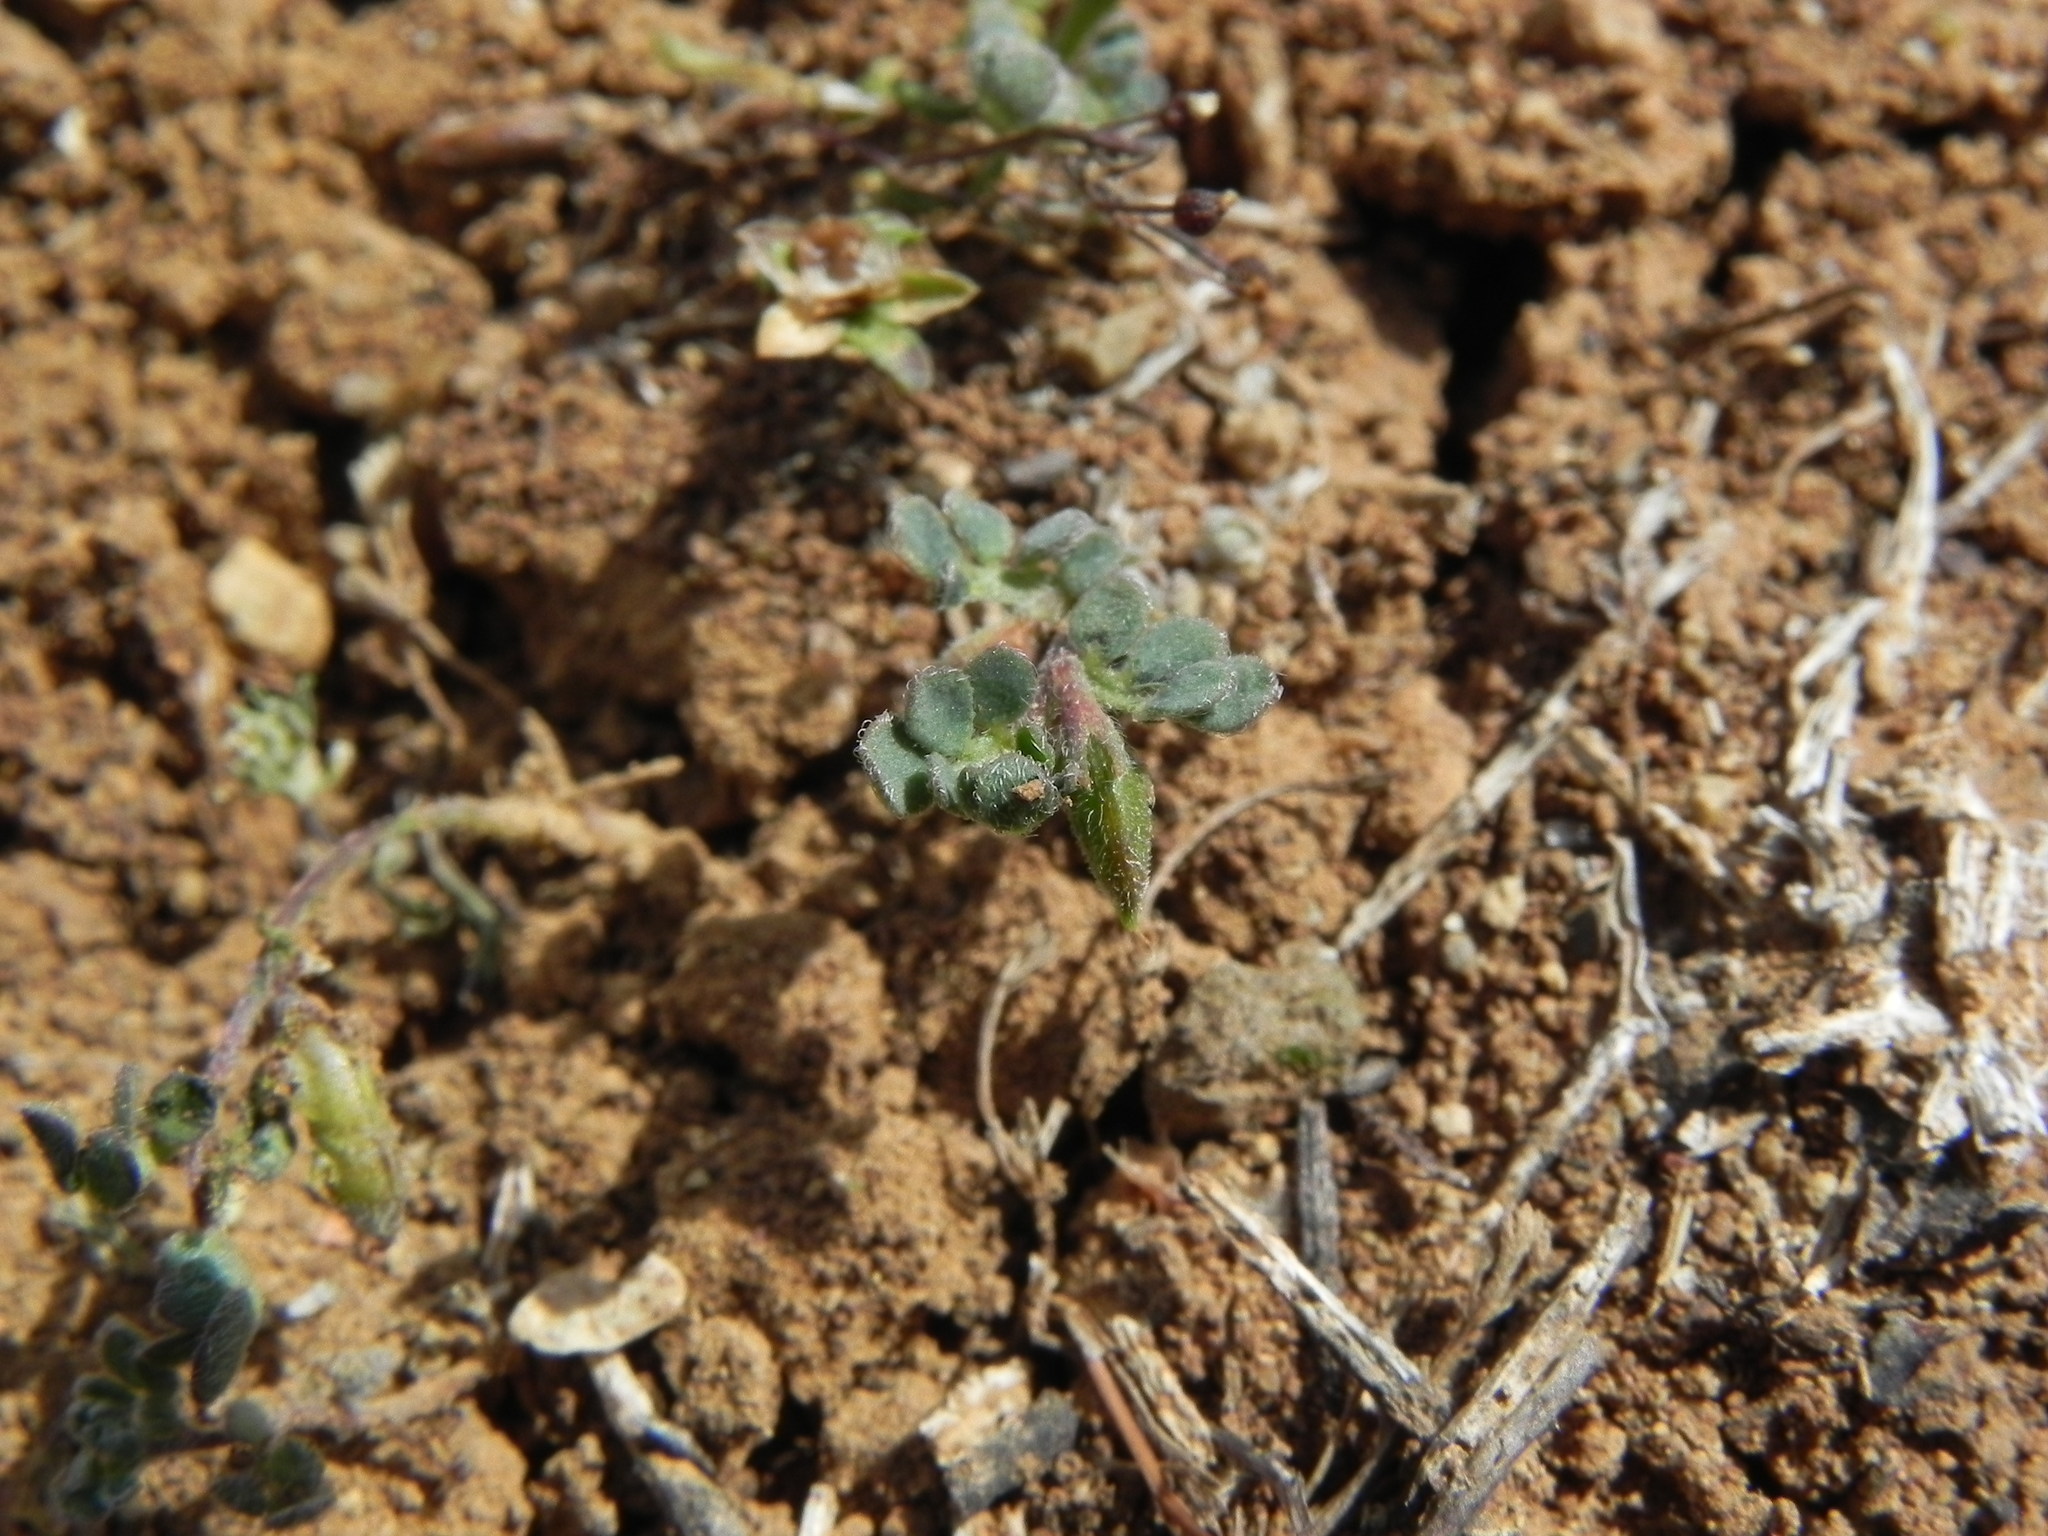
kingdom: Plantae
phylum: Tracheophyta
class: Magnoliopsida
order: Fabales
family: Fabaceae
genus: Acmispon
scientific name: Acmispon wrangelianus
